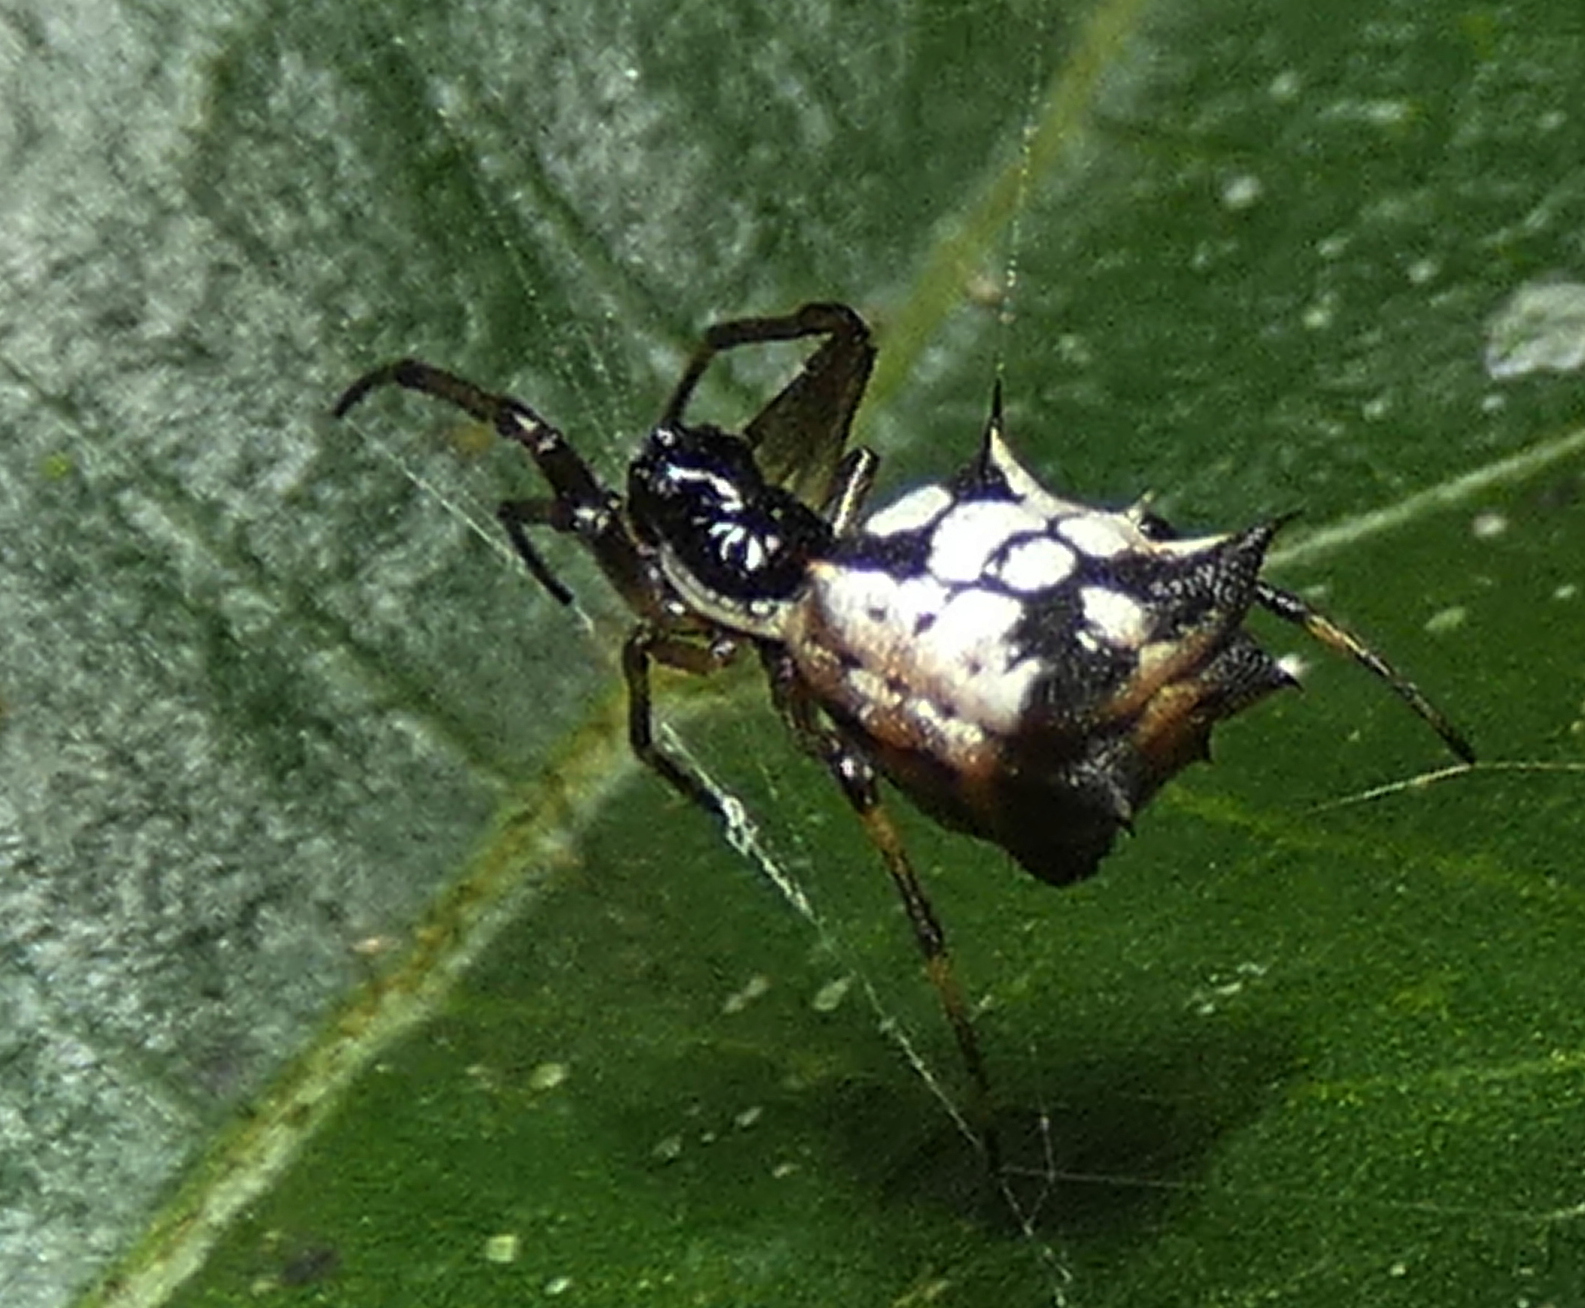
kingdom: Animalia
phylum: Arthropoda
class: Arachnida
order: Araneae
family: Araneidae
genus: Micrathena
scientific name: Micrathena picta
